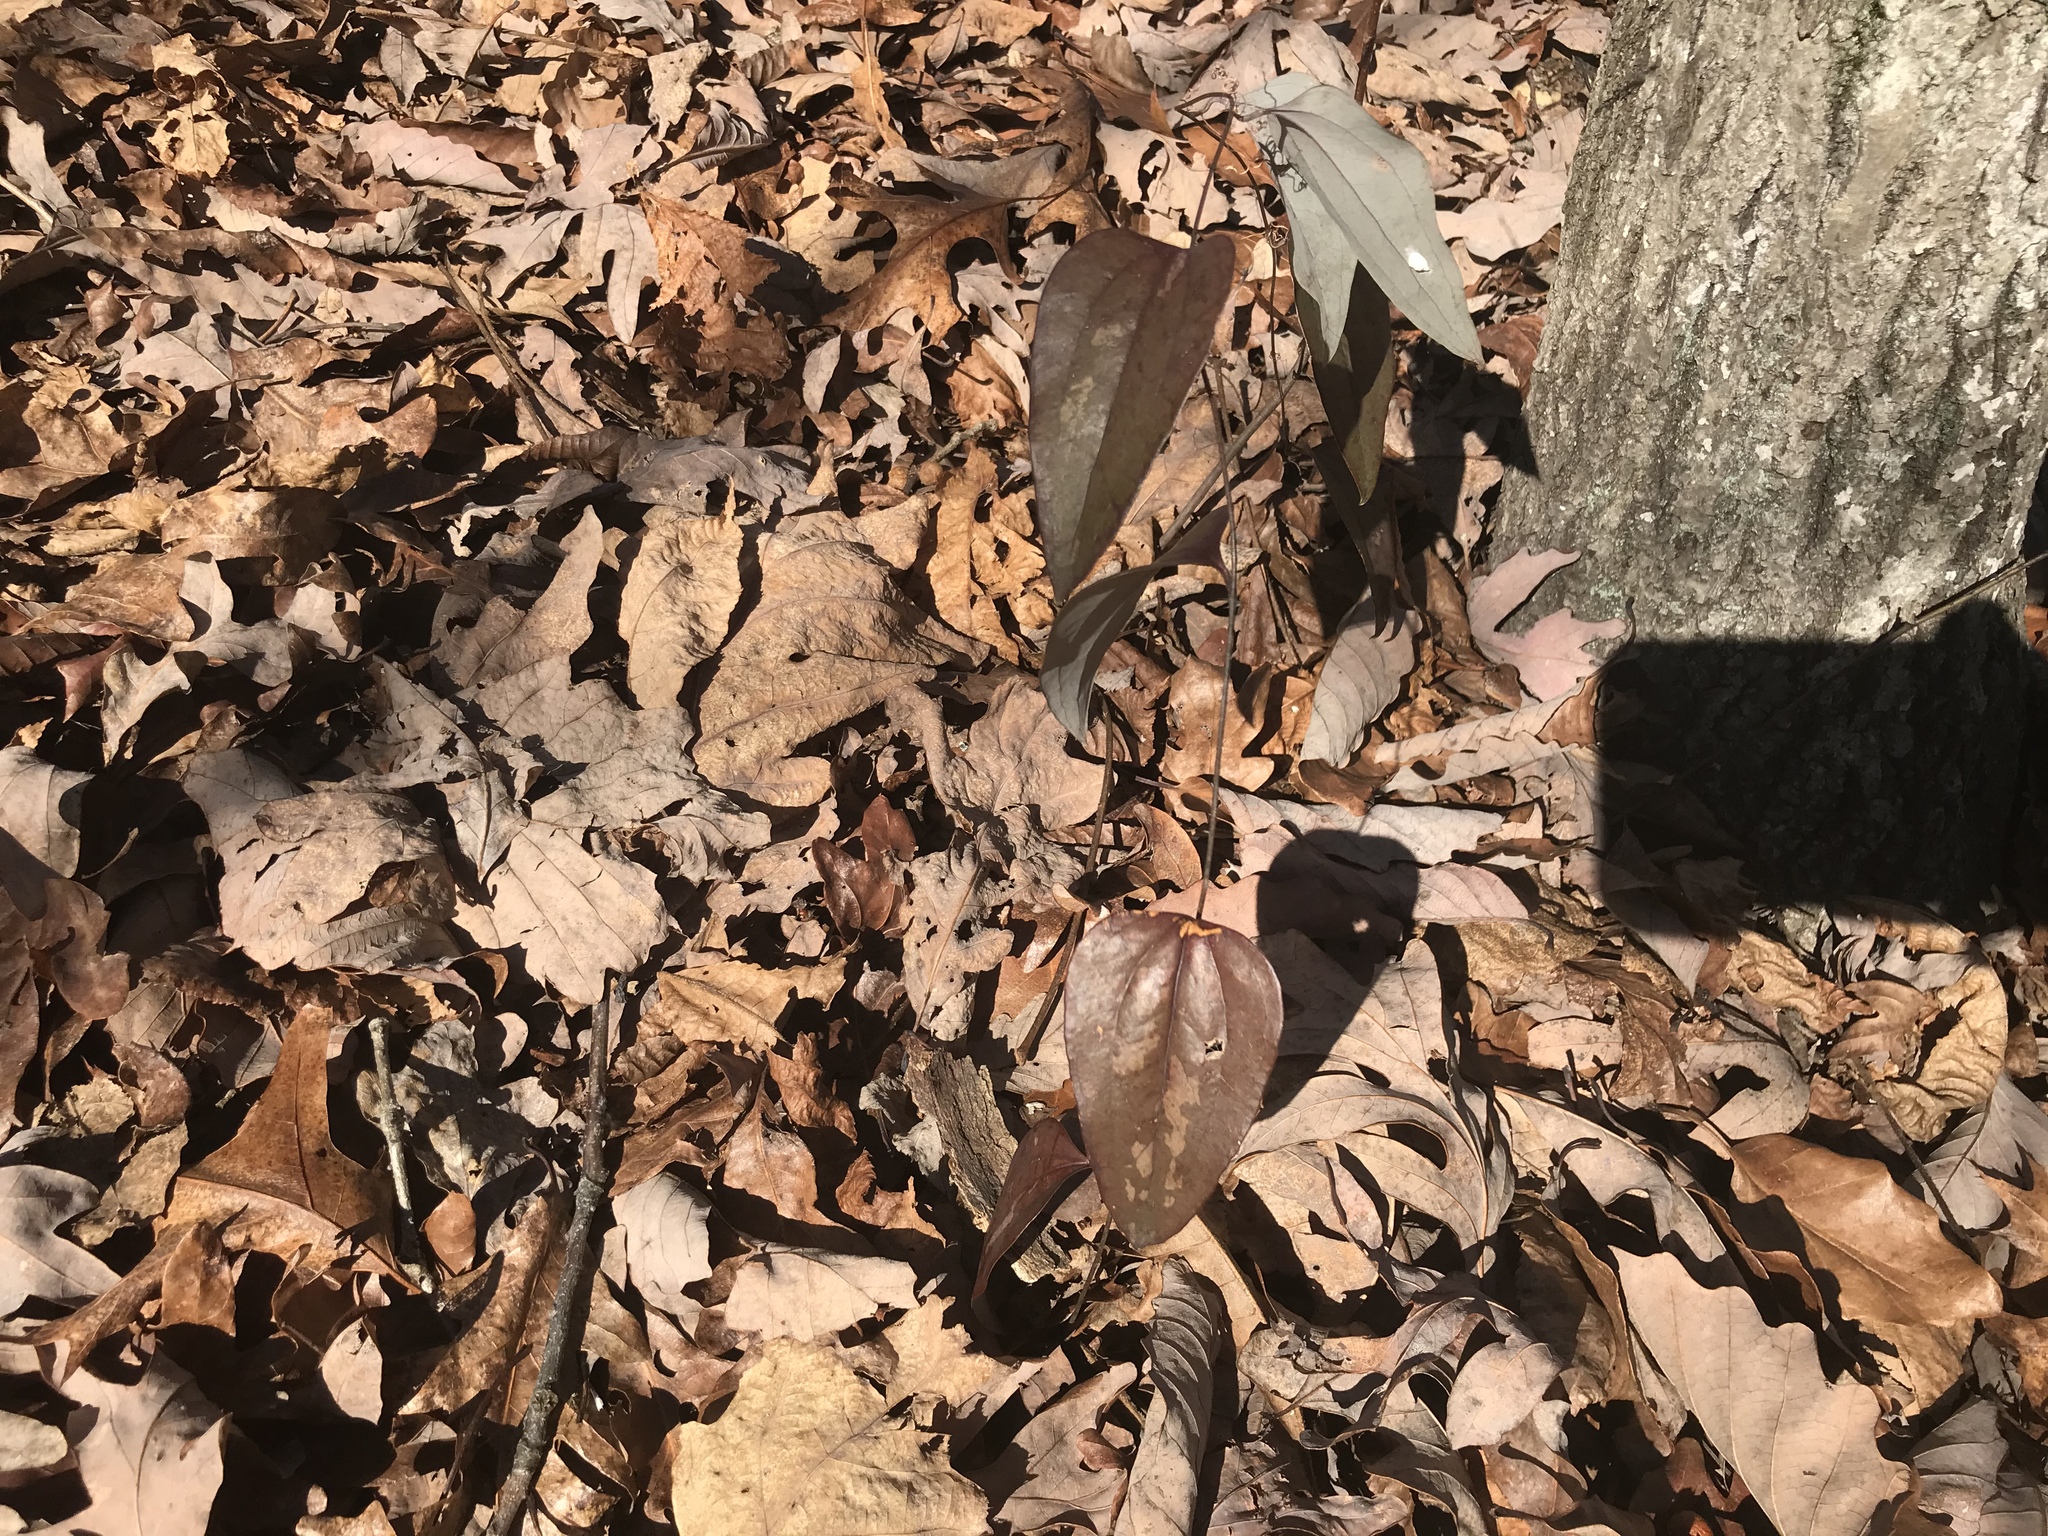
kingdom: Plantae
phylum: Tracheophyta
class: Liliopsida
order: Liliales
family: Smilacaceae
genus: Smilax
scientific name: Smilax glauca
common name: Cat greenbrier
